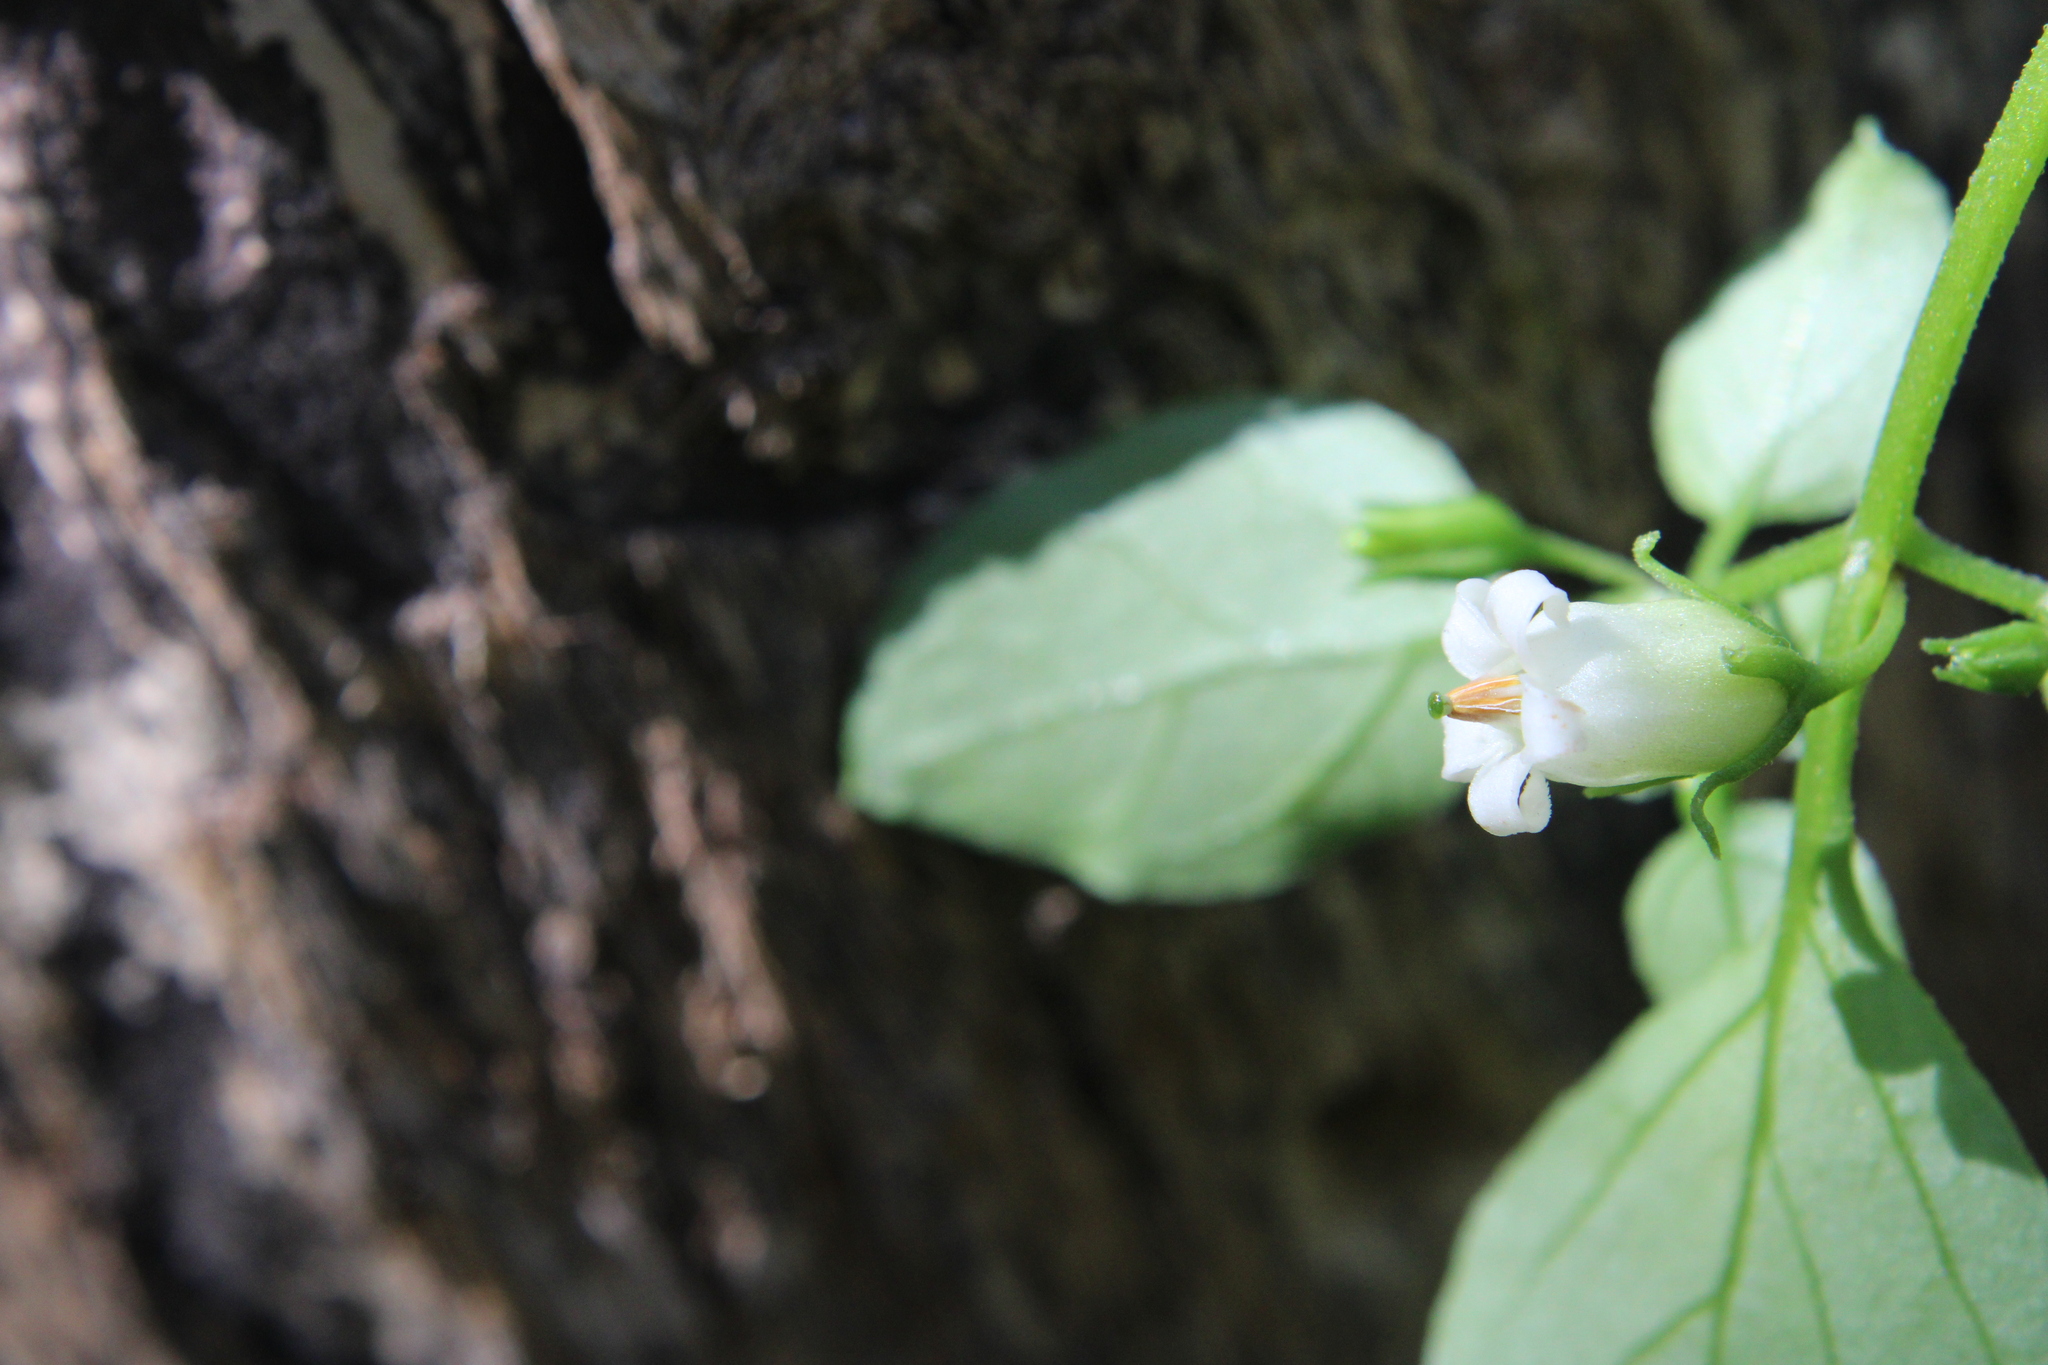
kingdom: Plantae
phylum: Tracheophyta
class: Magnoliopsida
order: Solanales
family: Solanaceae
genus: Salpichroa
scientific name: Salpichroa origanifolia
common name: Lily-of-the-valley-vine
